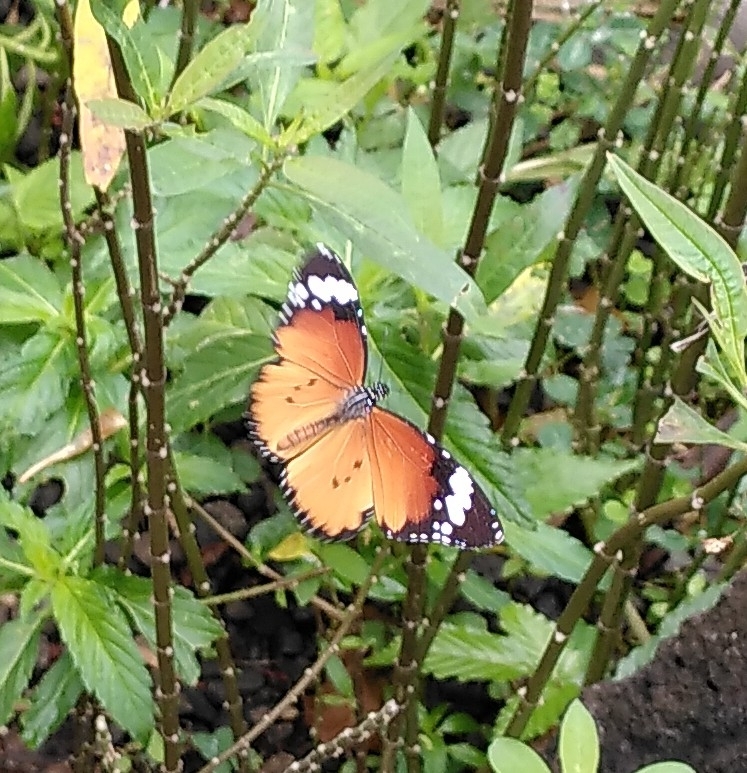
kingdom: Animalia
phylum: Arthropoda
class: Insecta
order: Lepidoptera
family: Nymphalidae
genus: Danaus
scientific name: Danaus chrysippus
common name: Plain tiger
